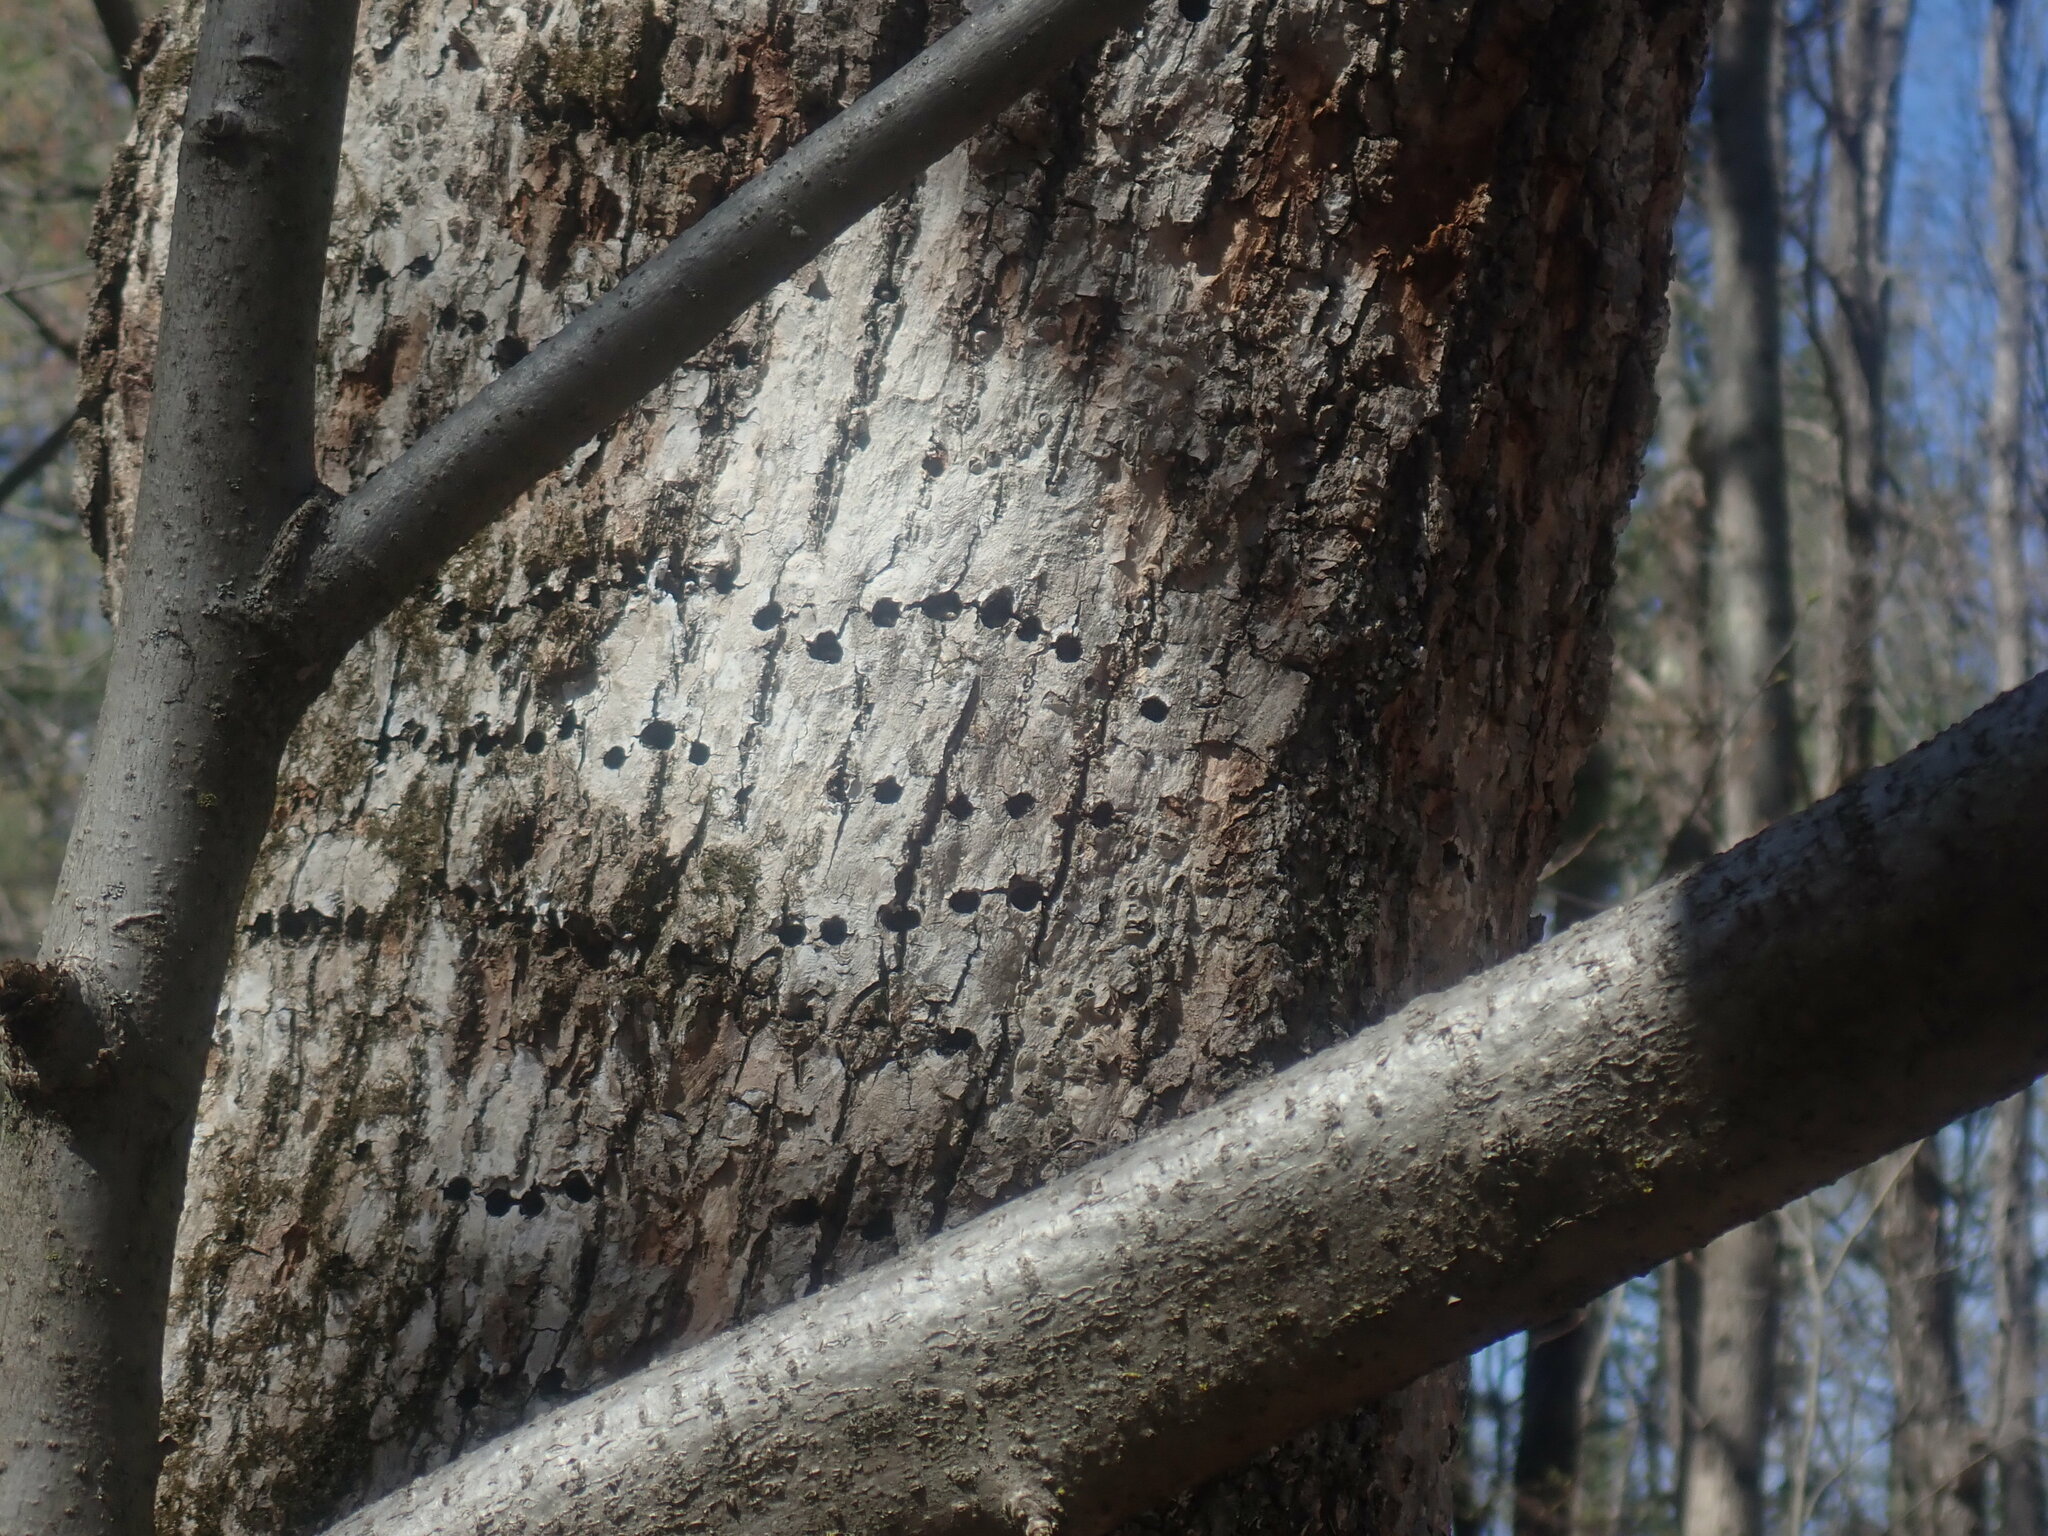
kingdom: Animalia
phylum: Chordata
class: Aves
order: Piciformes
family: Picidae
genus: Sphyrapicus
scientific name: Sphyrapicus varius
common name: Yellow-bellied sapsucker
